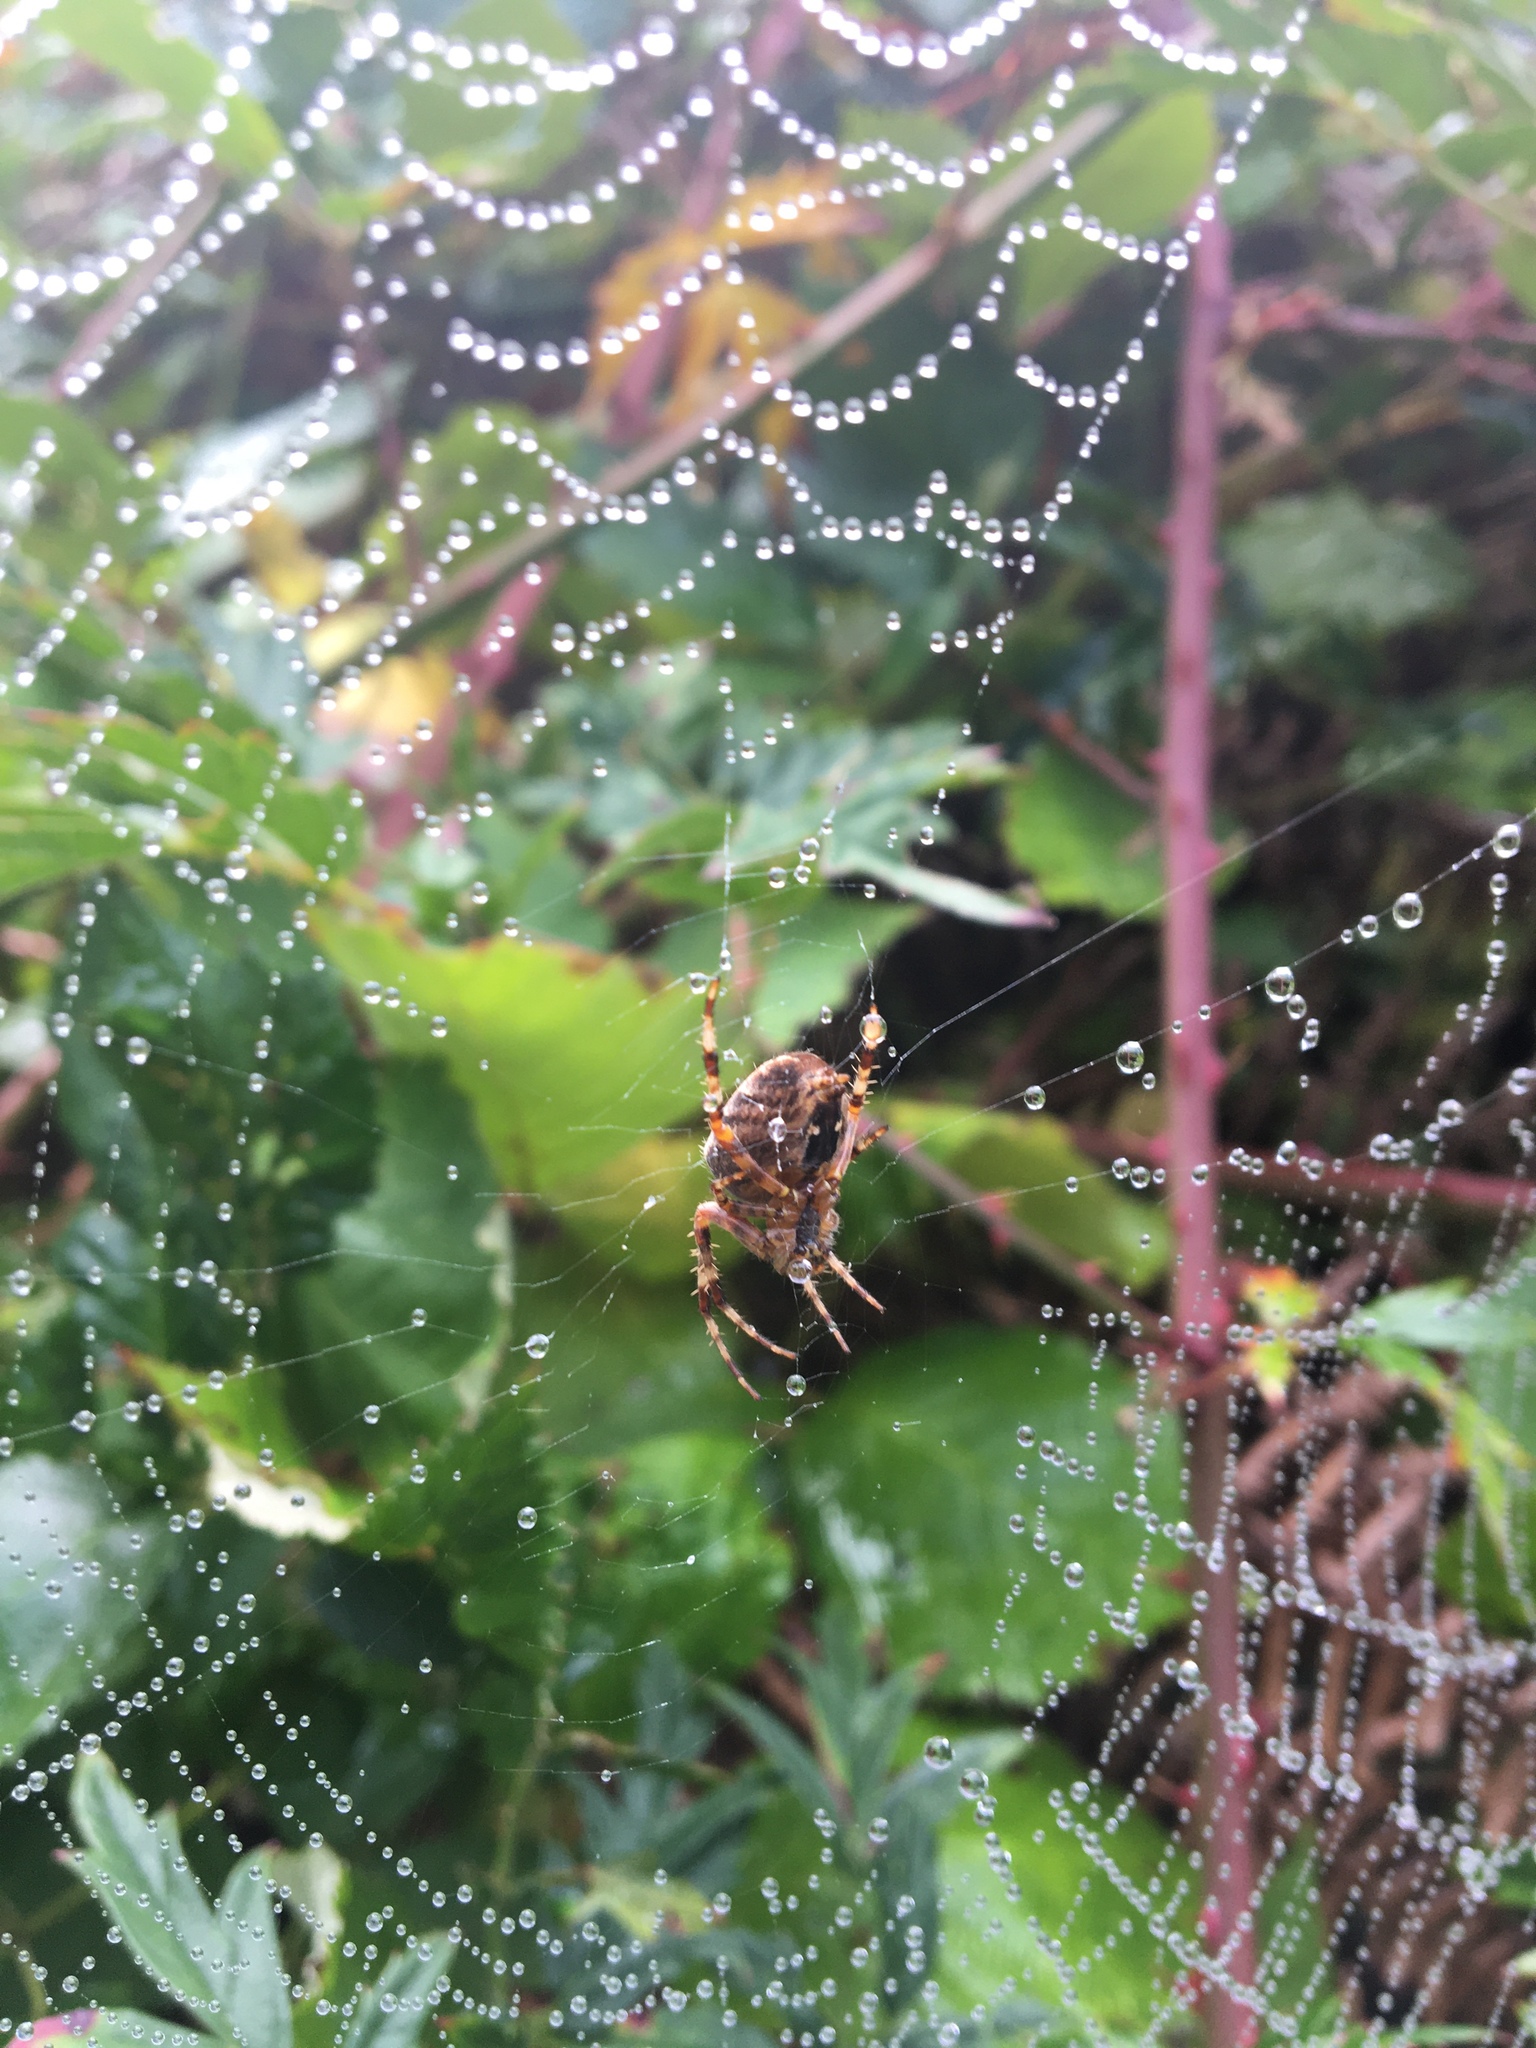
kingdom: Animalia
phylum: Arthropoda
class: Arachnida
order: Araneae
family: Araneidae
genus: Araneus
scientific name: Araneus diadematus
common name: Cross orbweaver
